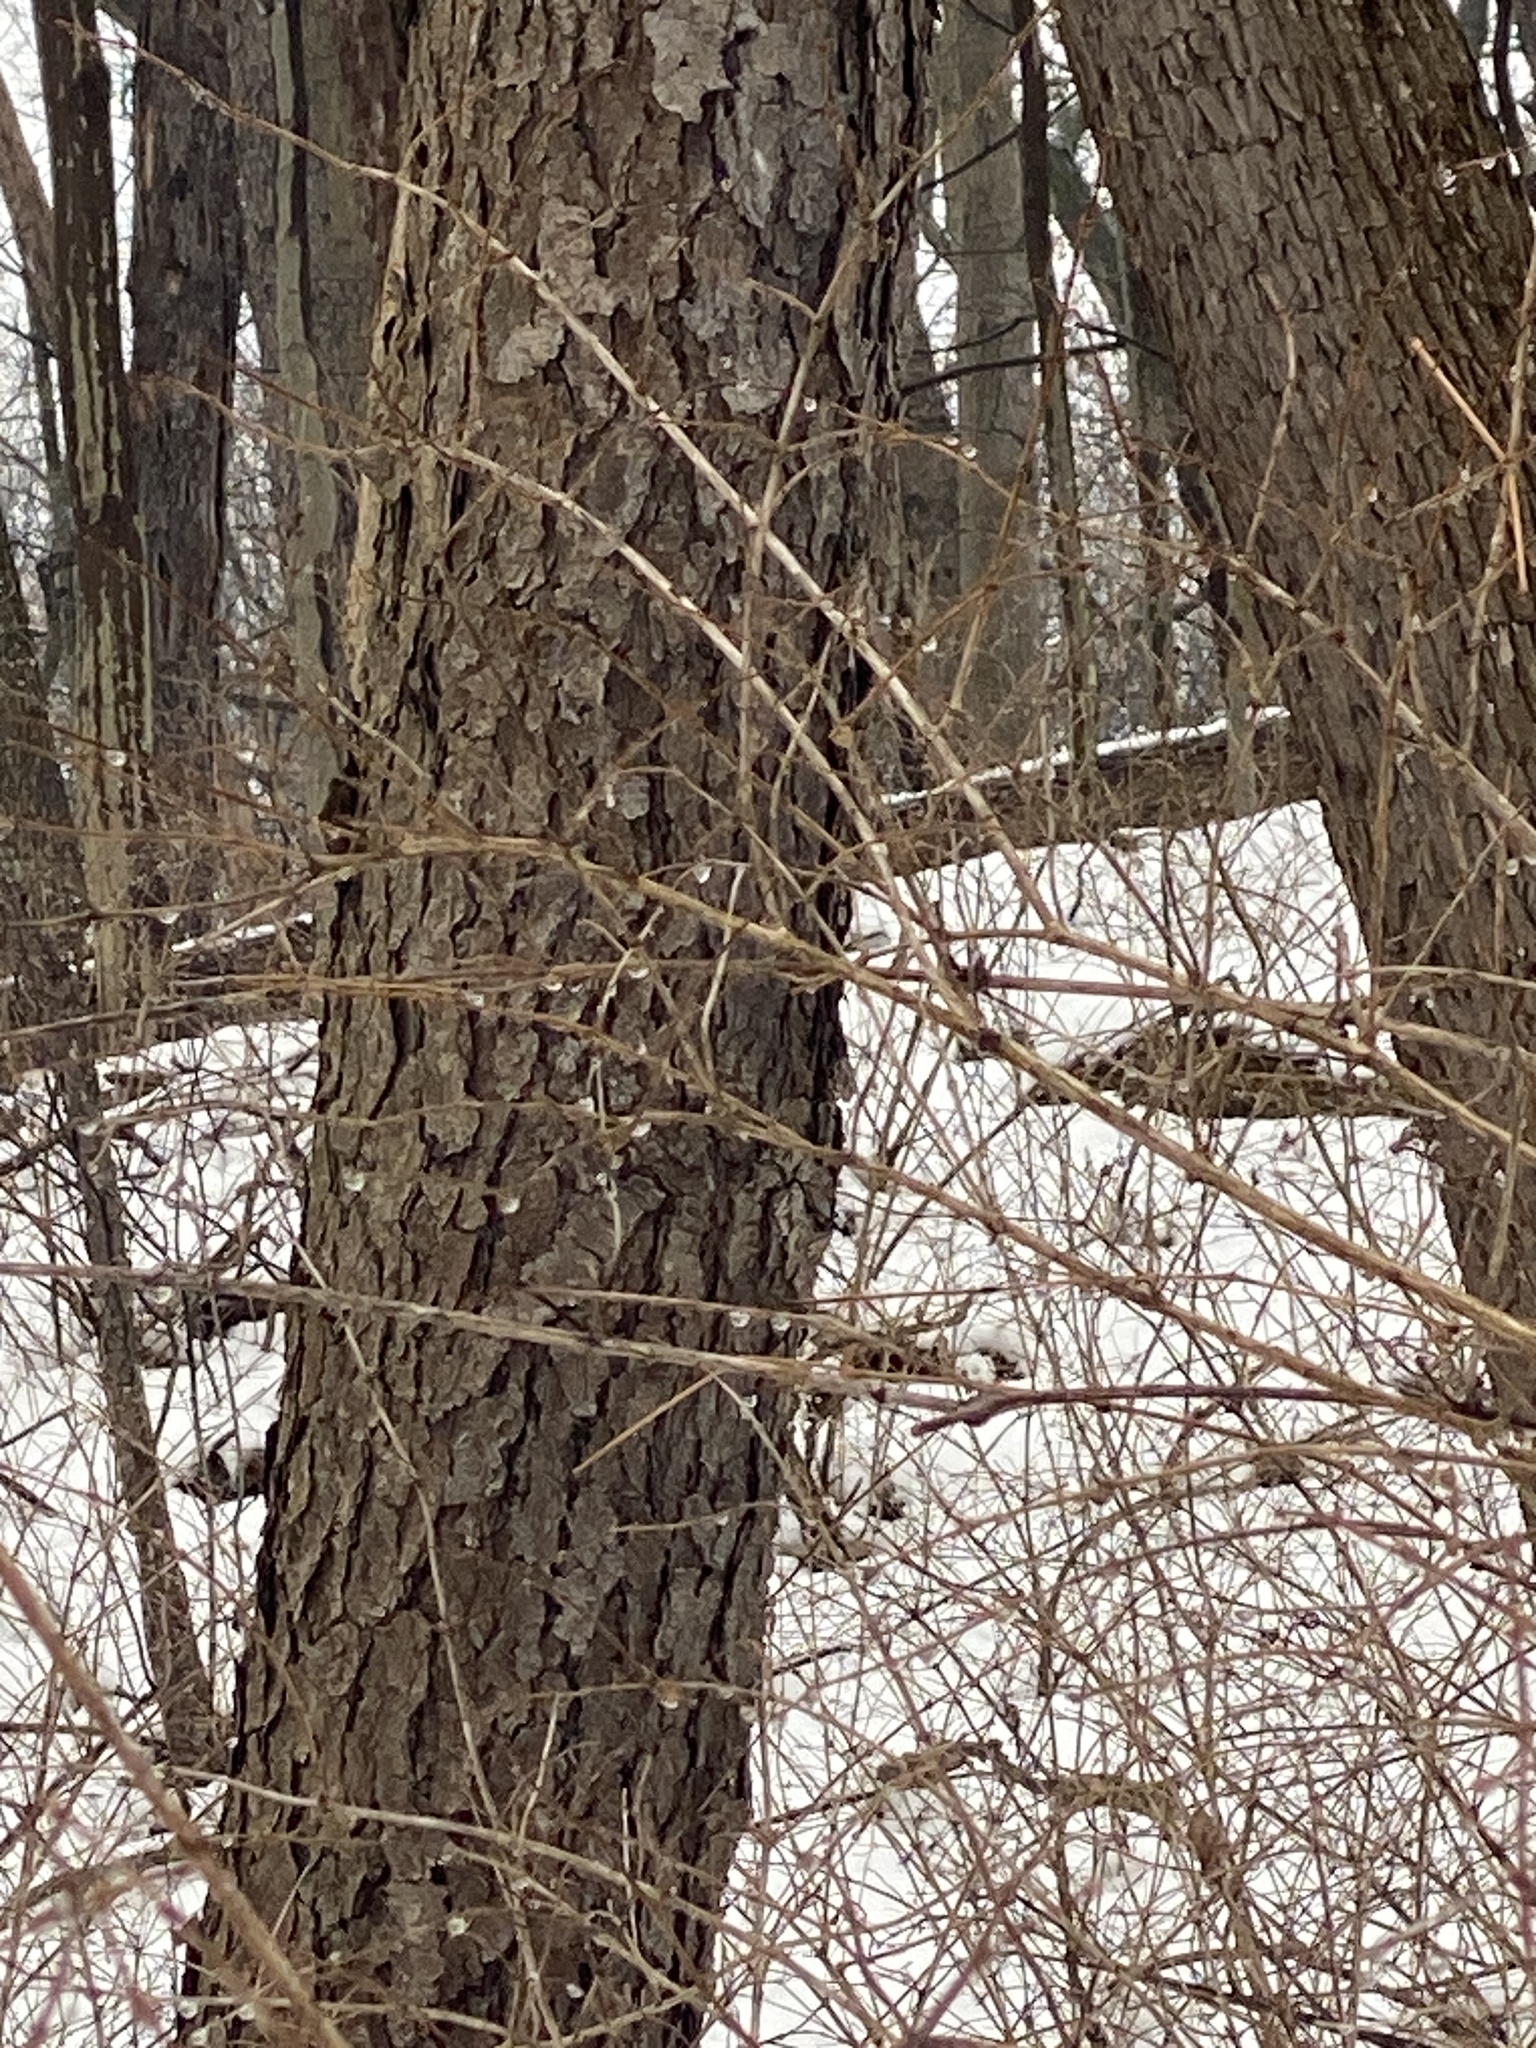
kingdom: Plantae
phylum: Tracheophyta
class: Magnoliopsida
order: Rosales
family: Rosaceae
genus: Prunus
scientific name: Prunus serotina
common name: Black cherry
